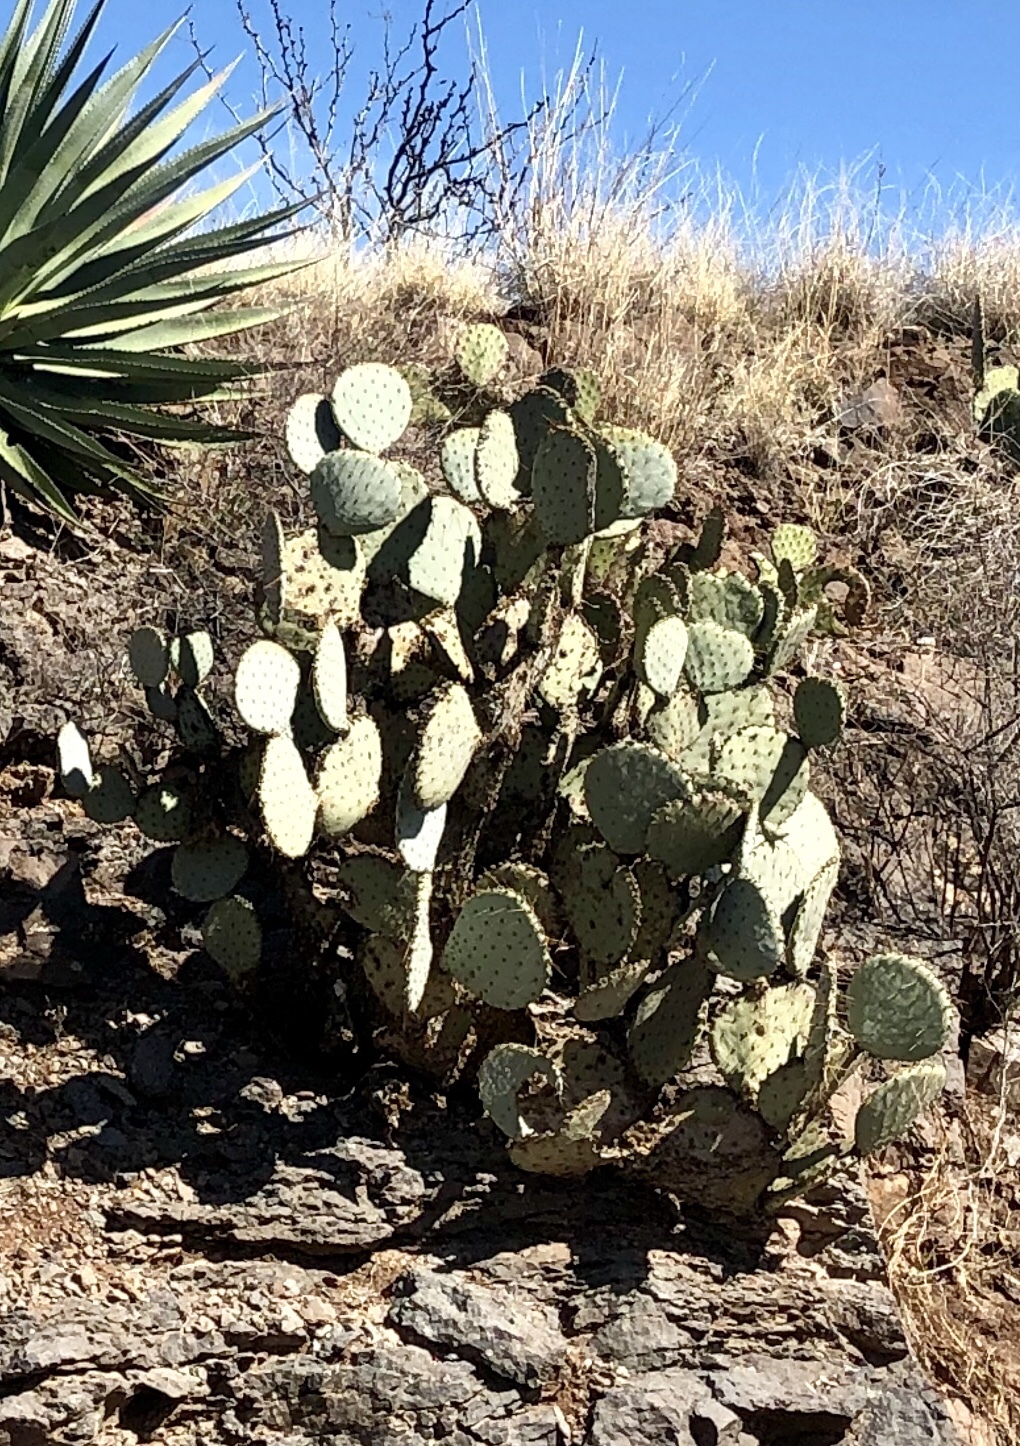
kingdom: Plantae
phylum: Tracheophyta
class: Magnoliopsida
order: Caryophyllales
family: Cactaceae
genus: Opuntia
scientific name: Opuntia chlorotica
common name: Dollar-joint prickly-pear
